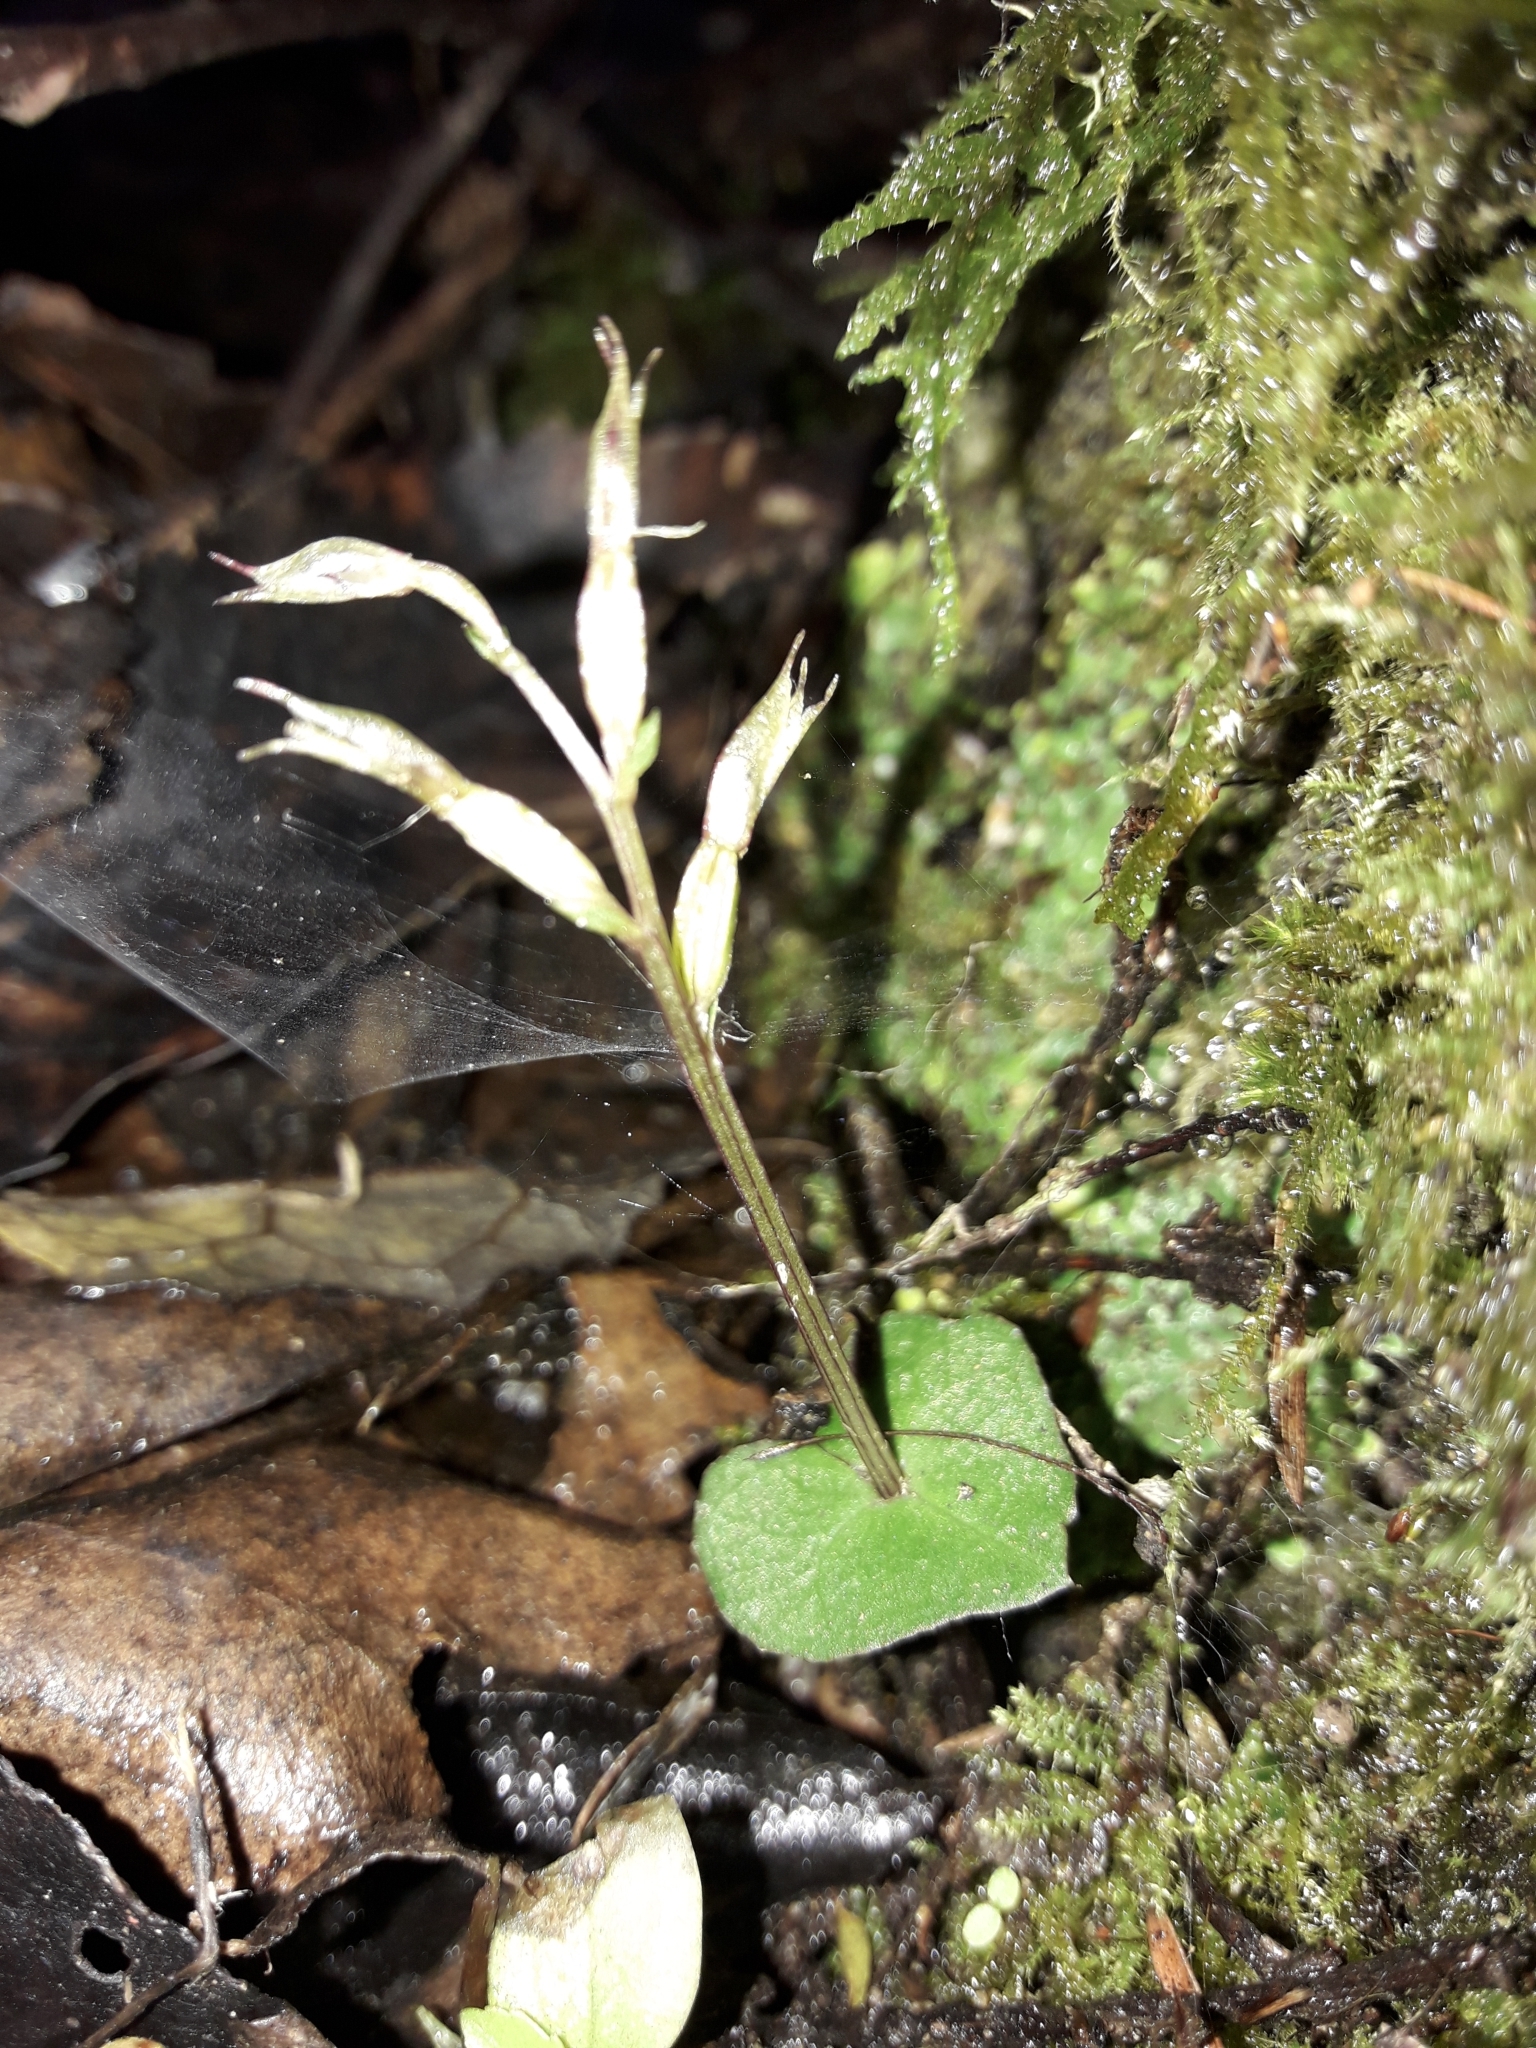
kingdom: Plantae
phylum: Tracheophyta
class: Liliopsida
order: Asparagales
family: Orchidaceae
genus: Acianthus
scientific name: Acianthus sinclairii
